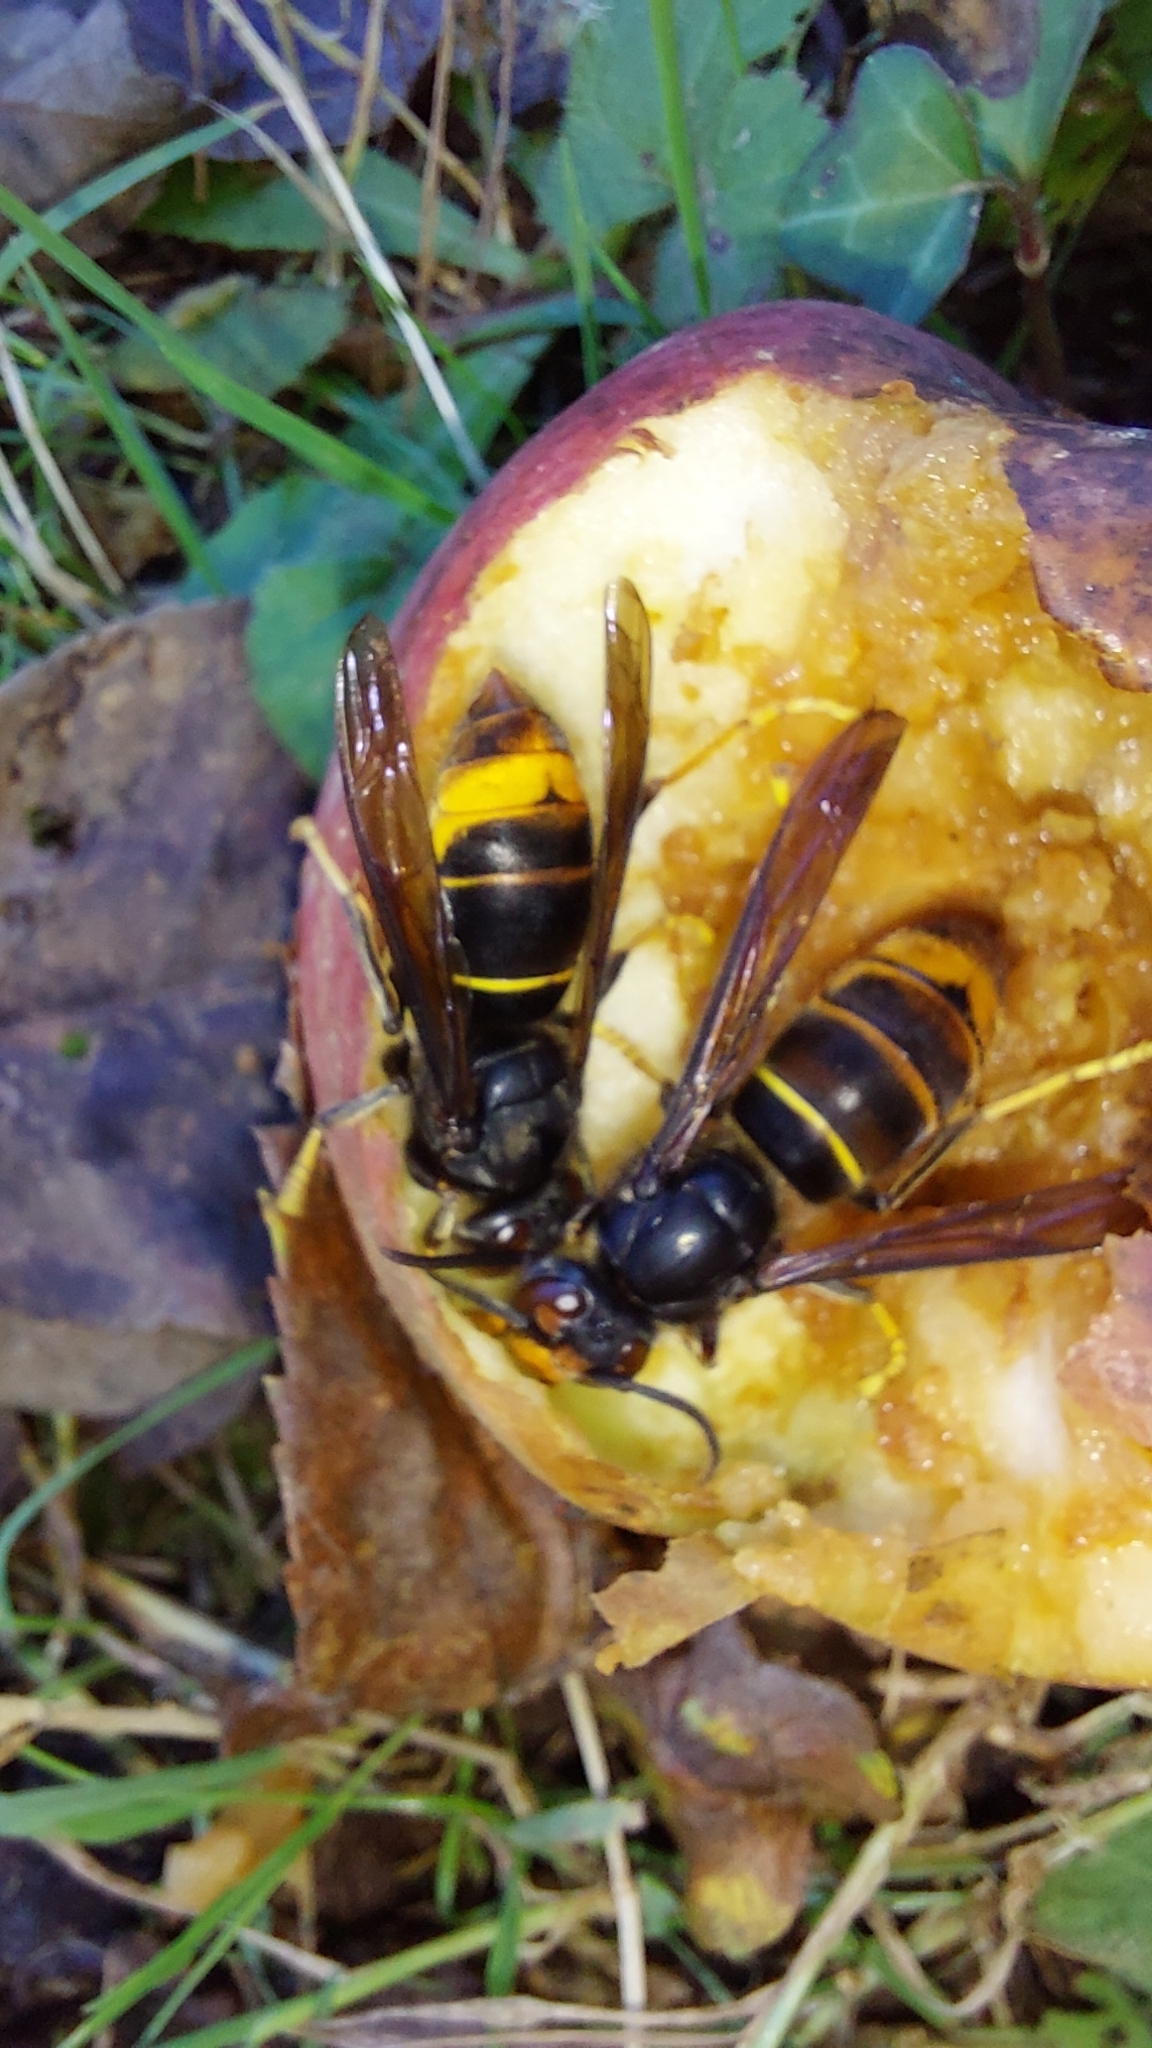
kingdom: Animalia
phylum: Arthropoda
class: Insecta
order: Hymenoptera
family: Vespidae
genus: Vespa
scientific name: Vespa velutina
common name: Asian hornet
